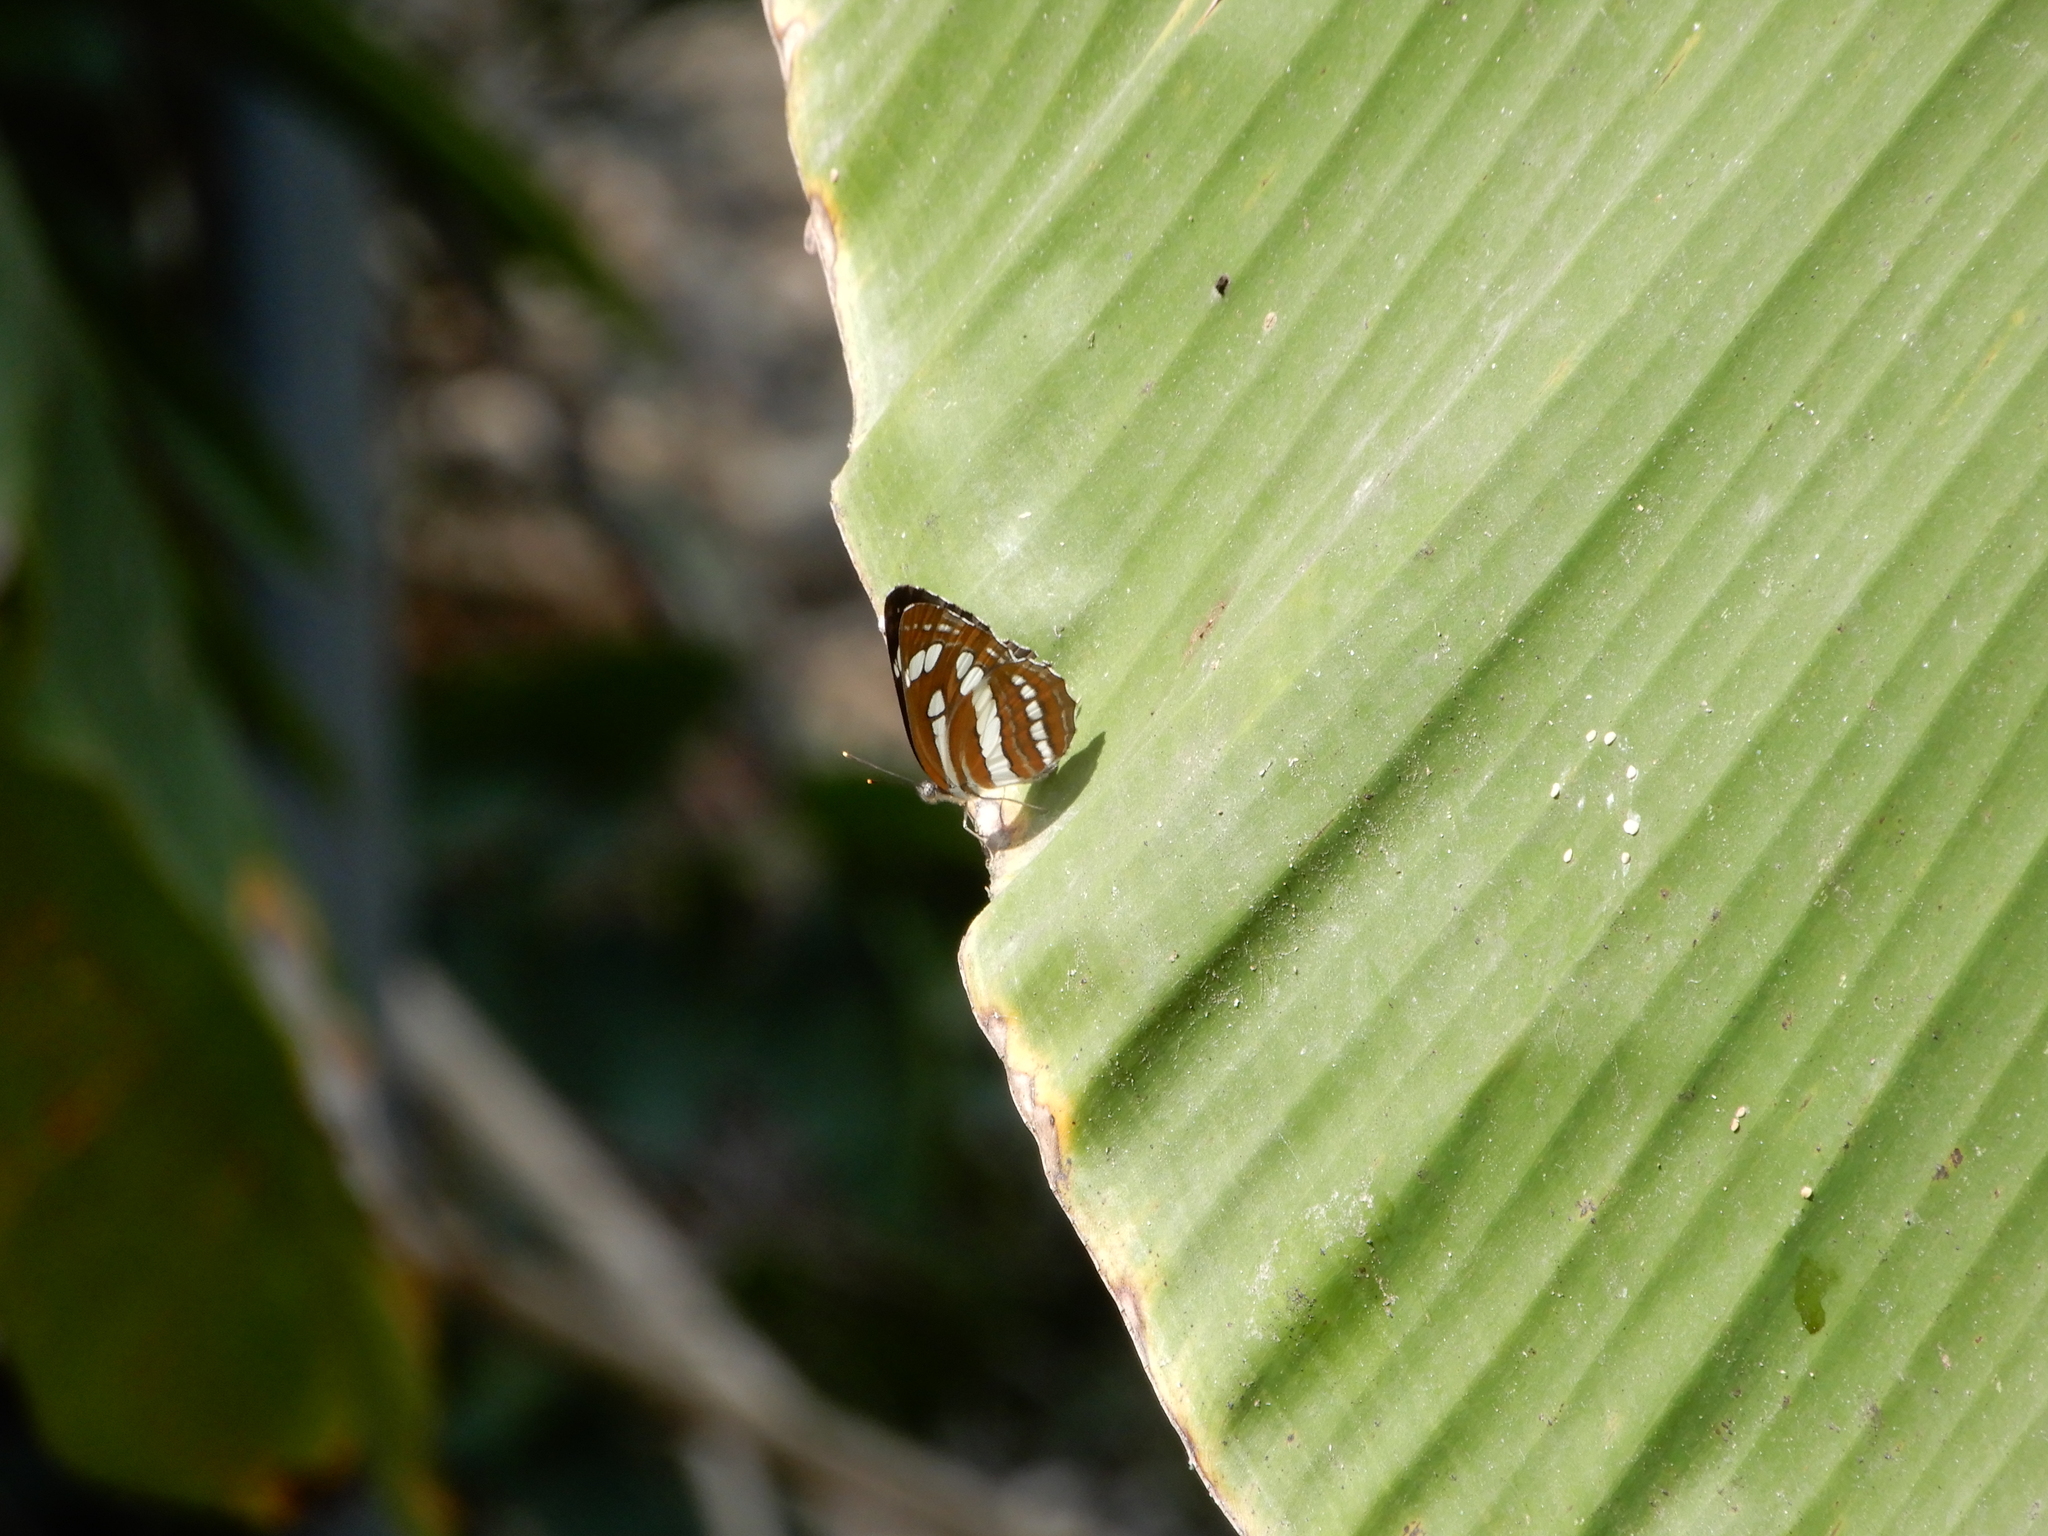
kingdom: Animalia
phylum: Arthropoda
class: Insecta
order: Lepidoptera
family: Nymphalidae
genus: Neptis
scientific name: Neptis hylas
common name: Common sailer
